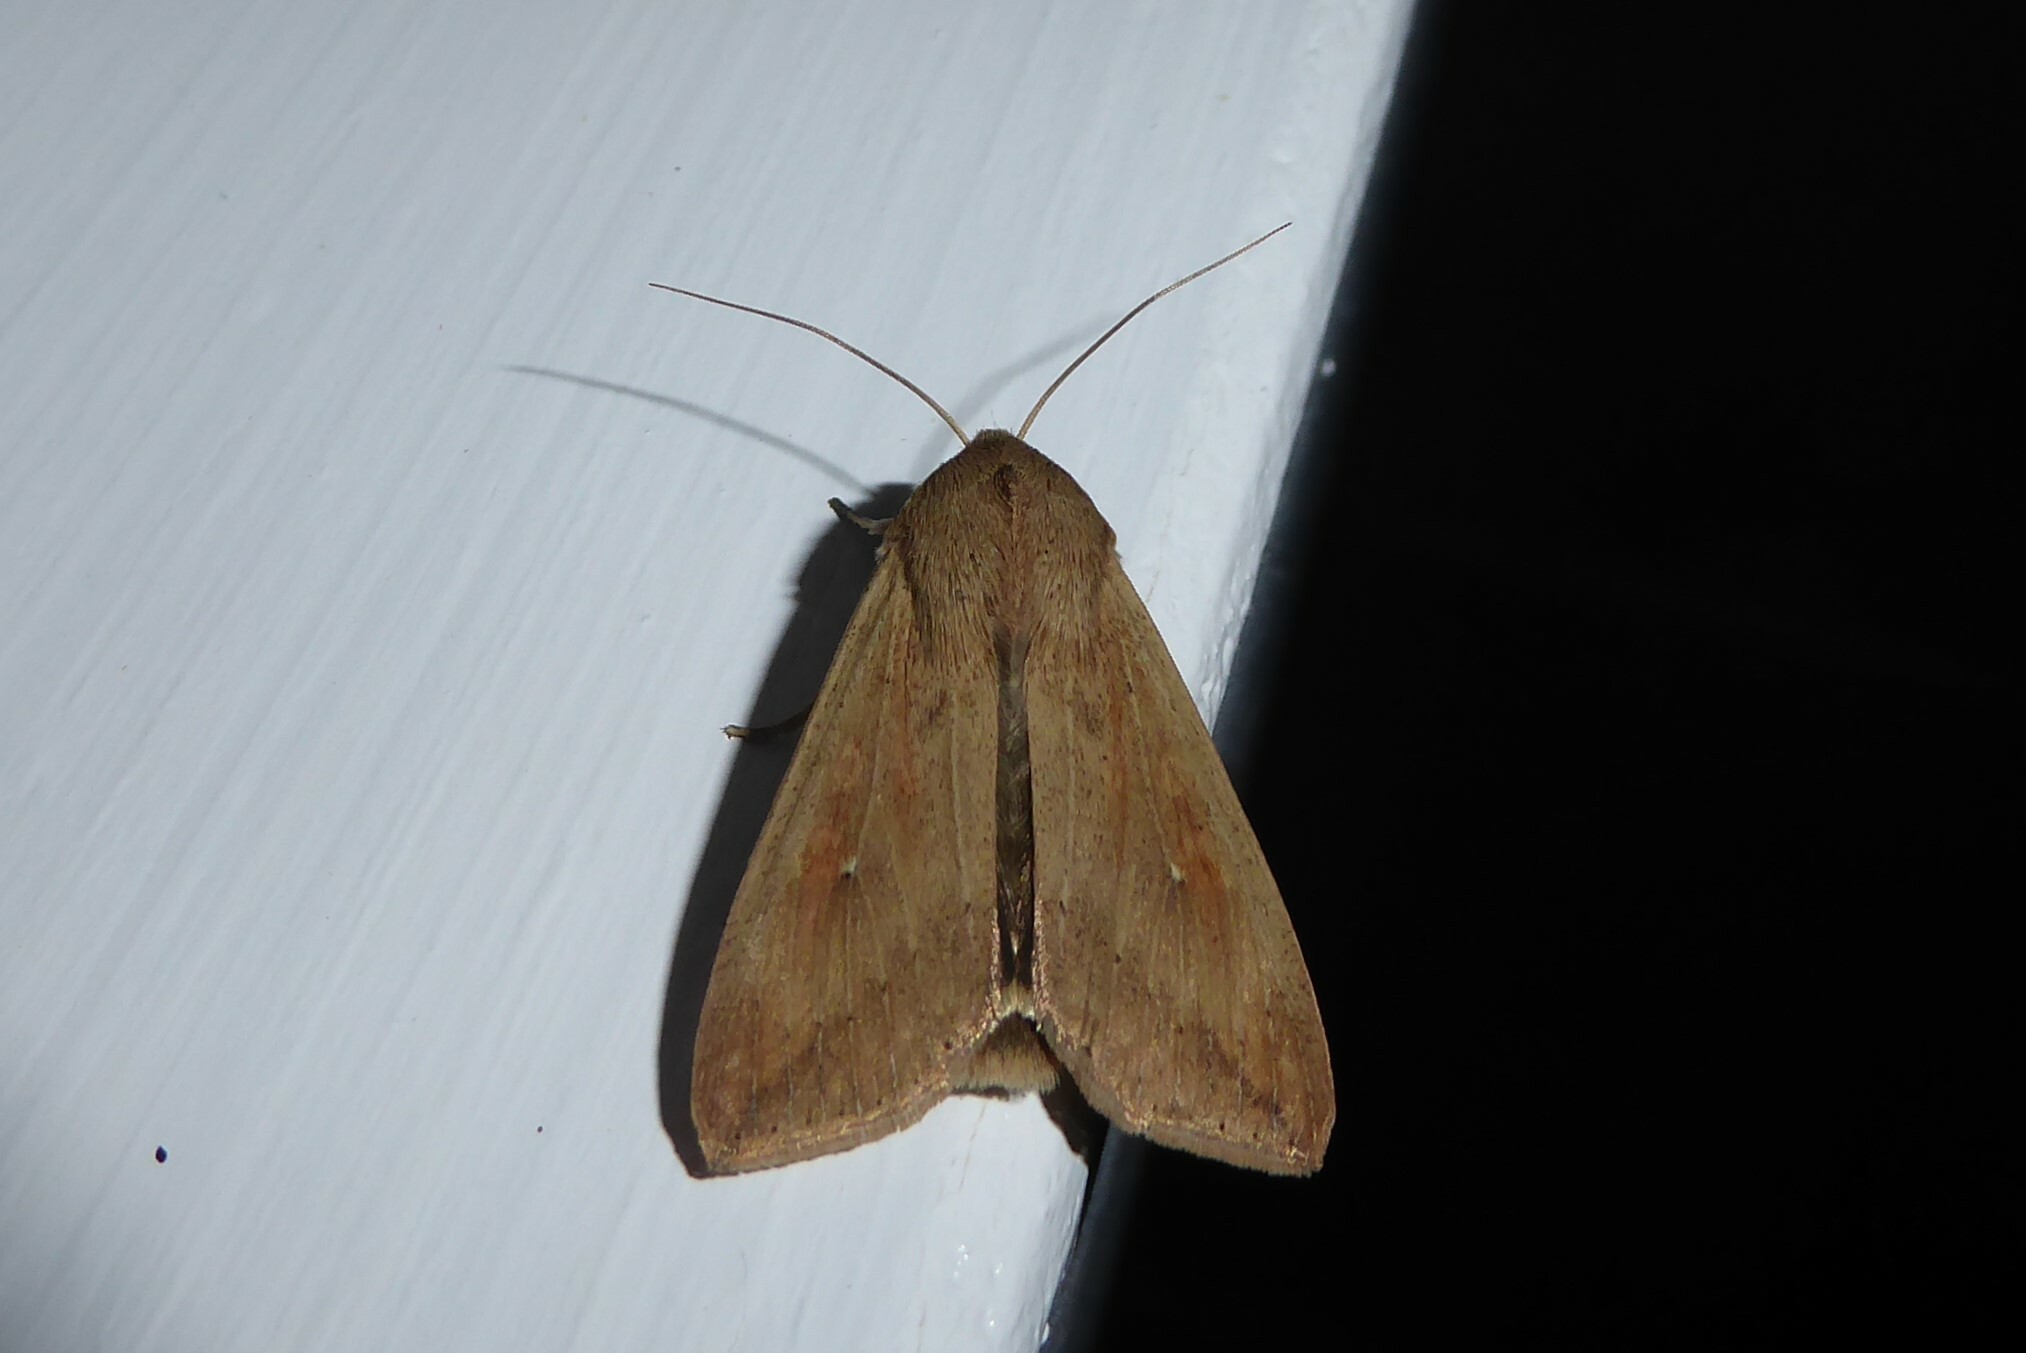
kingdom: Animalia
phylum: Arthropoda
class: Insecta
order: Lepidoptera
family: Noctuidae
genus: Mythimna
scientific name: Mythimna separata
